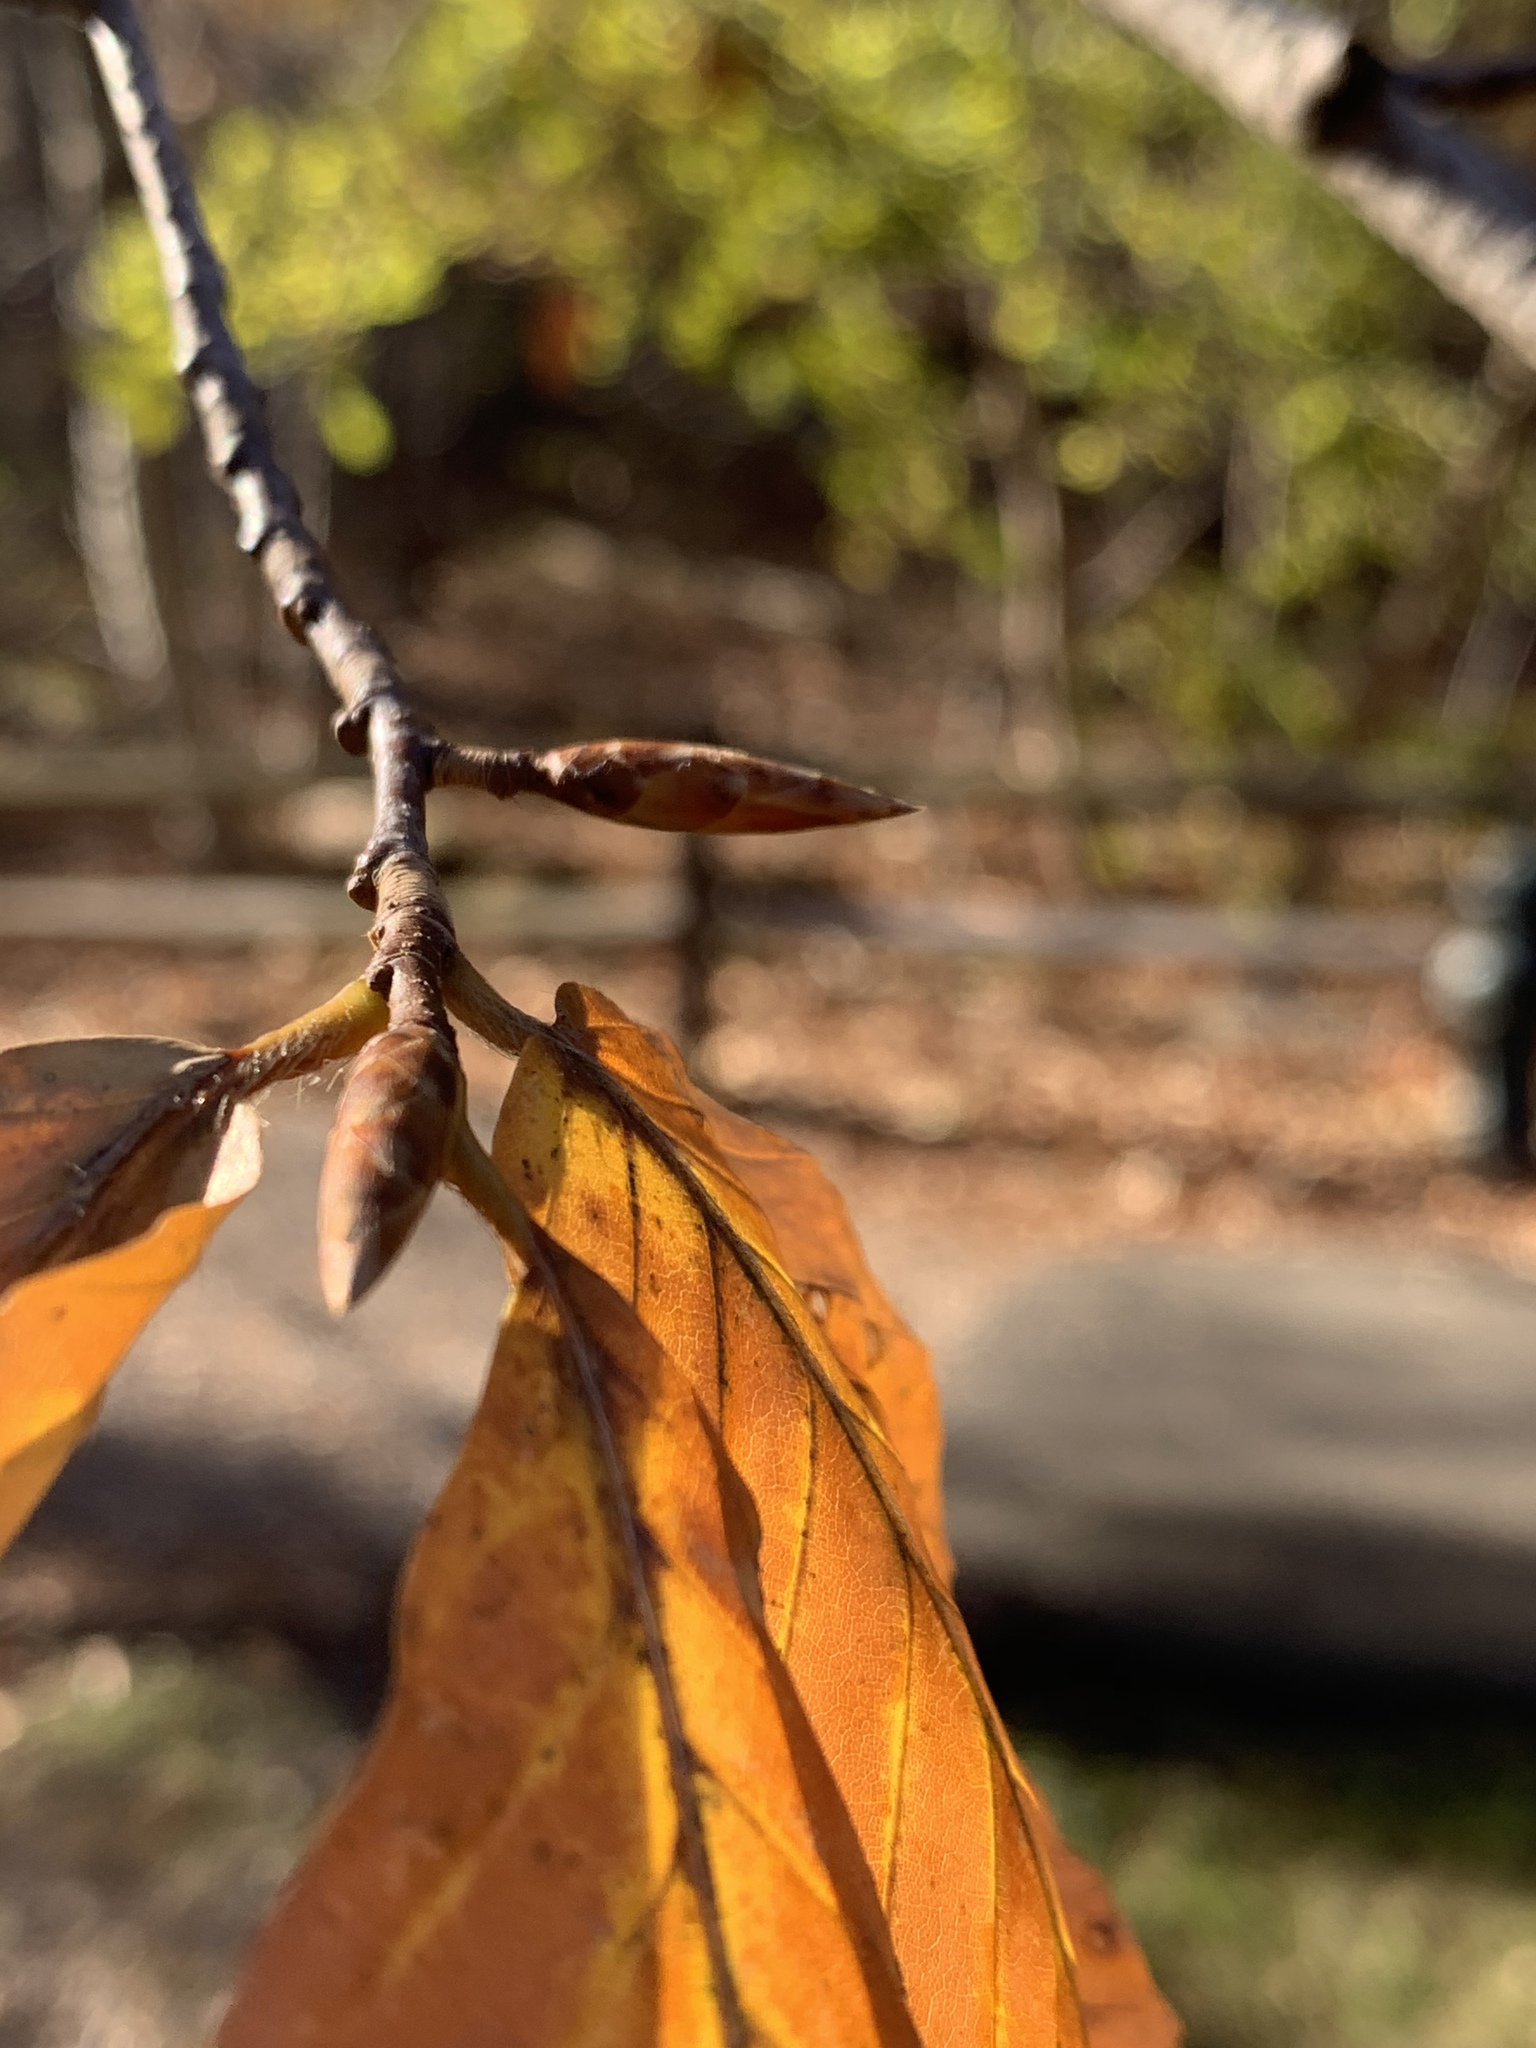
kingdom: Plantae
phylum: Tracheophyta
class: Magnoliopsida
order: Fagales
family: Fagaceae
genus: Fagus
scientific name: Fagus grandifolia
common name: American beech
